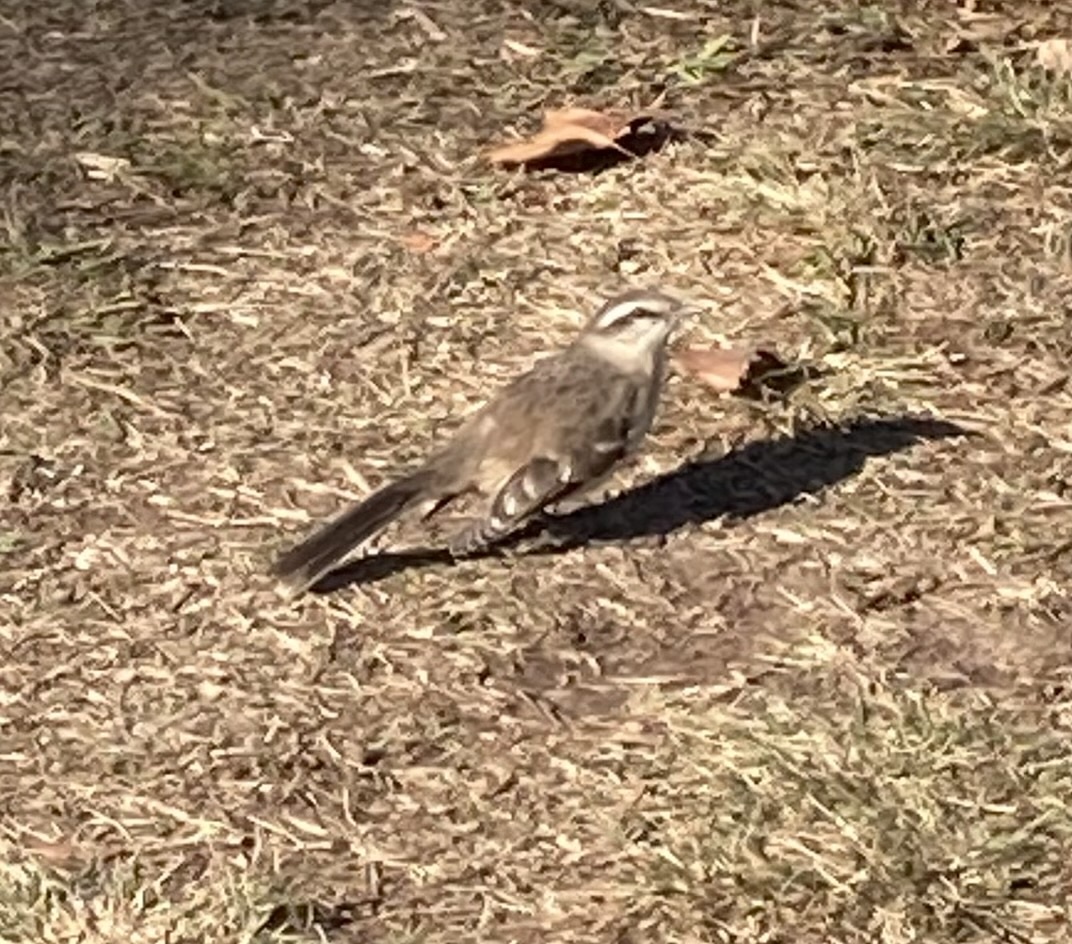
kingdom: Animalia
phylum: Chordata
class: Aves
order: Passeriformes
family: Mimidae
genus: Mimus
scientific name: Mimus saturninus
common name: Chalk-browed mockingbird
